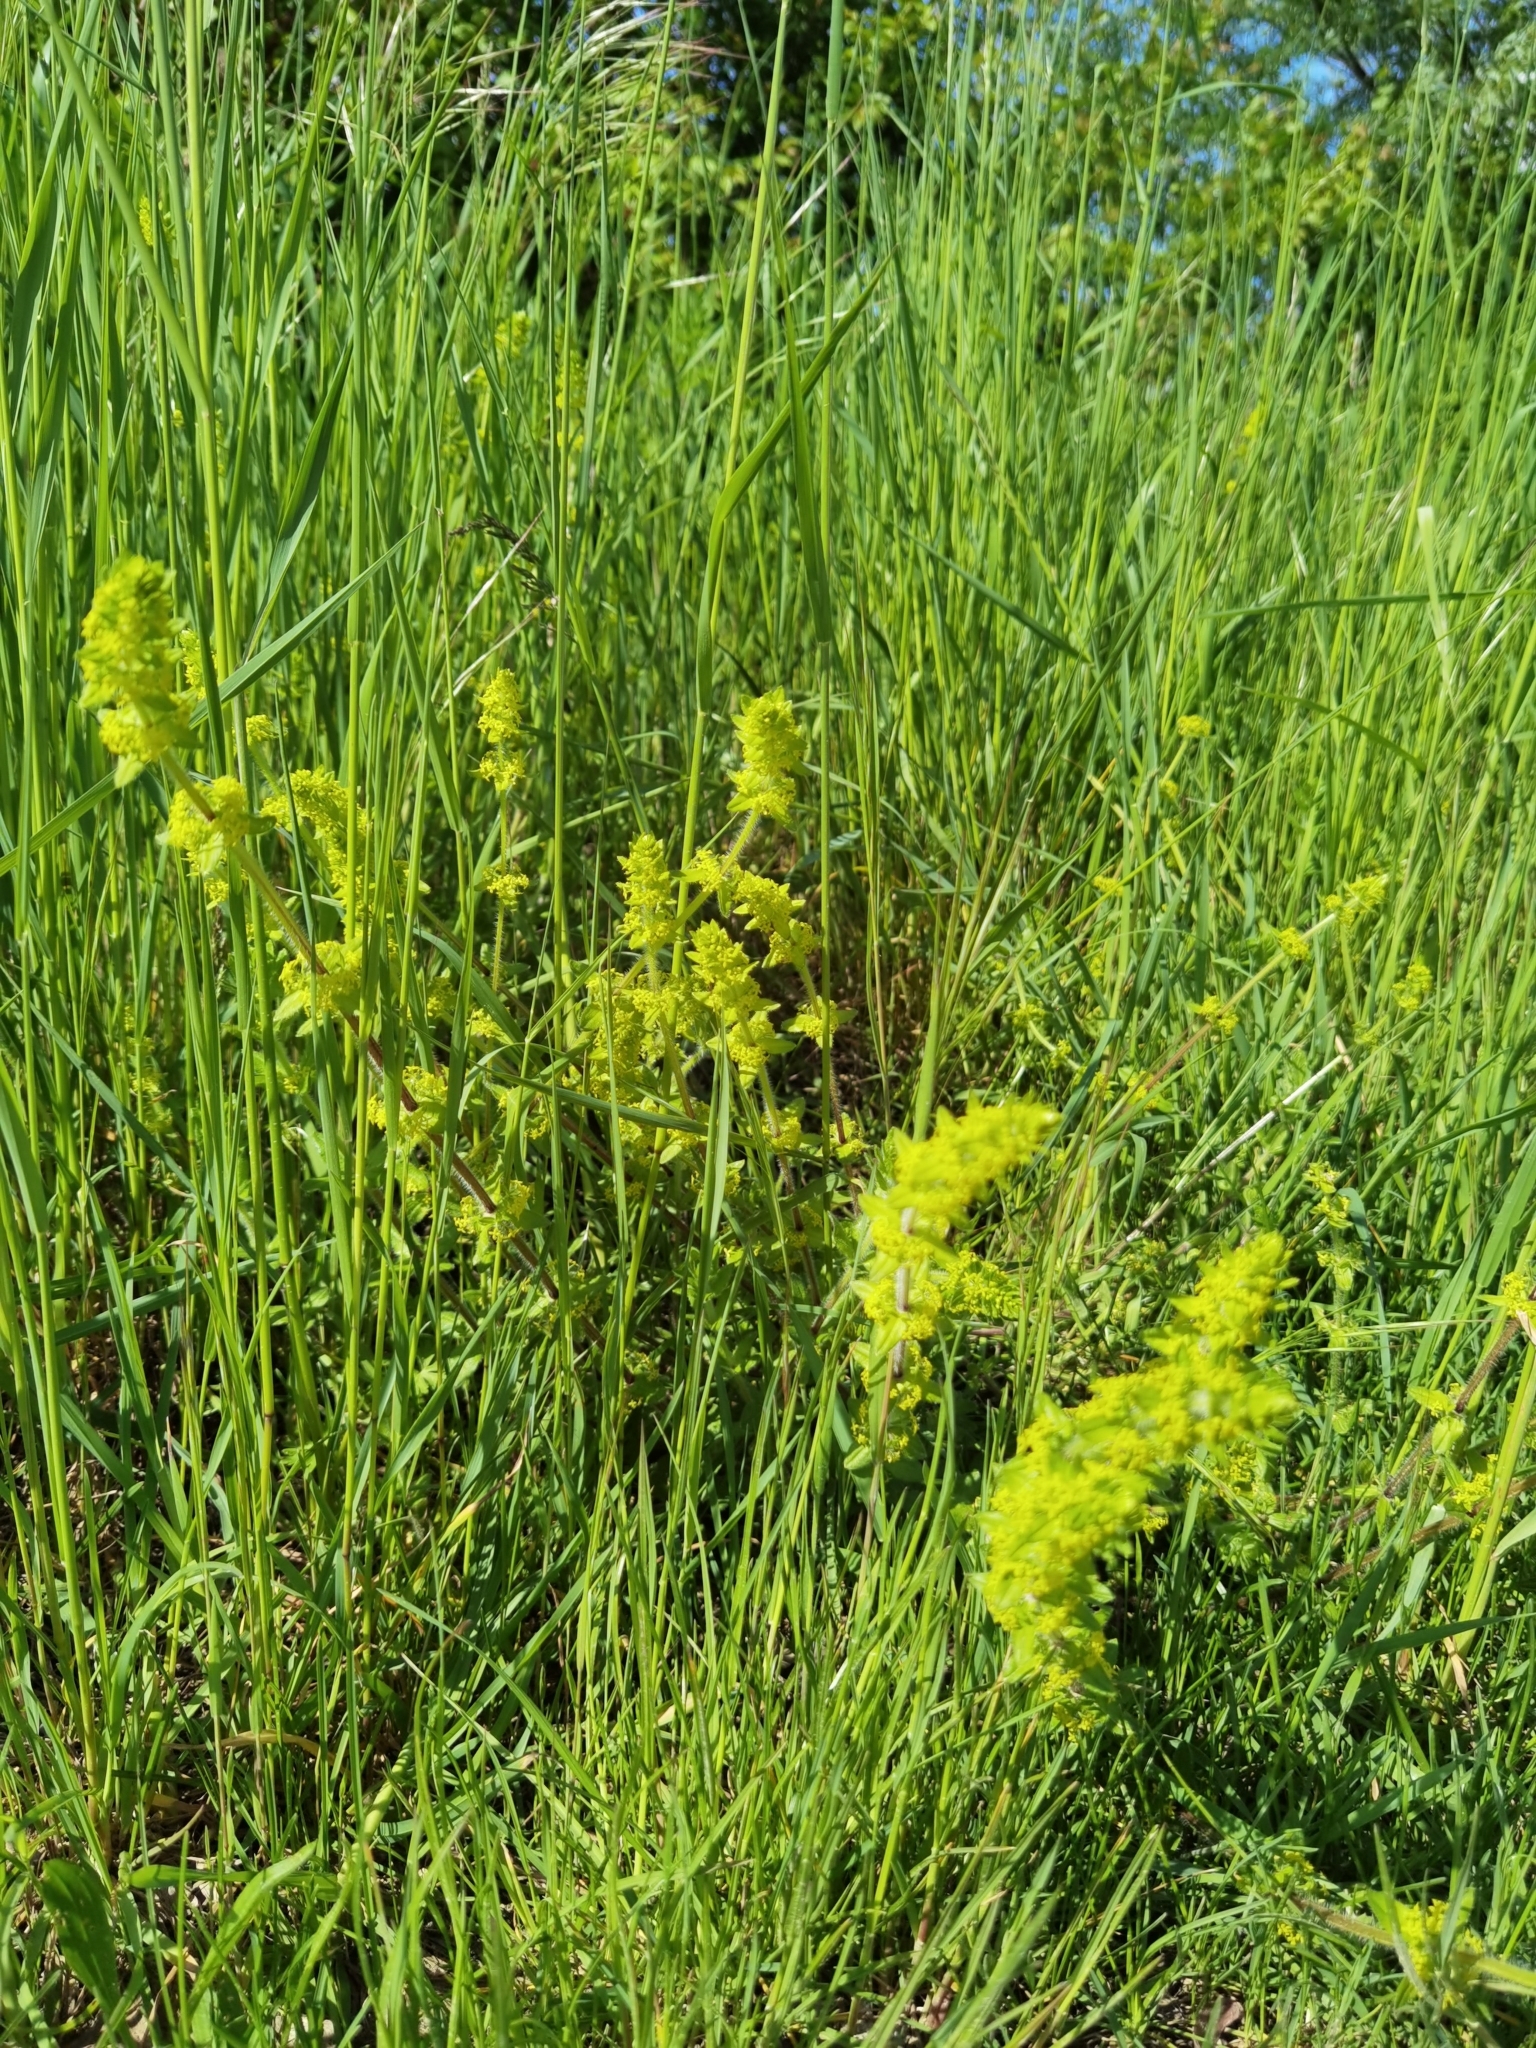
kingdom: Plantae
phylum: Tracheophyta
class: Magnoliopsida
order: Gentianales
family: Rubiaceae
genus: Cruciata
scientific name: Cruciata laevipes
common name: Crosswort
